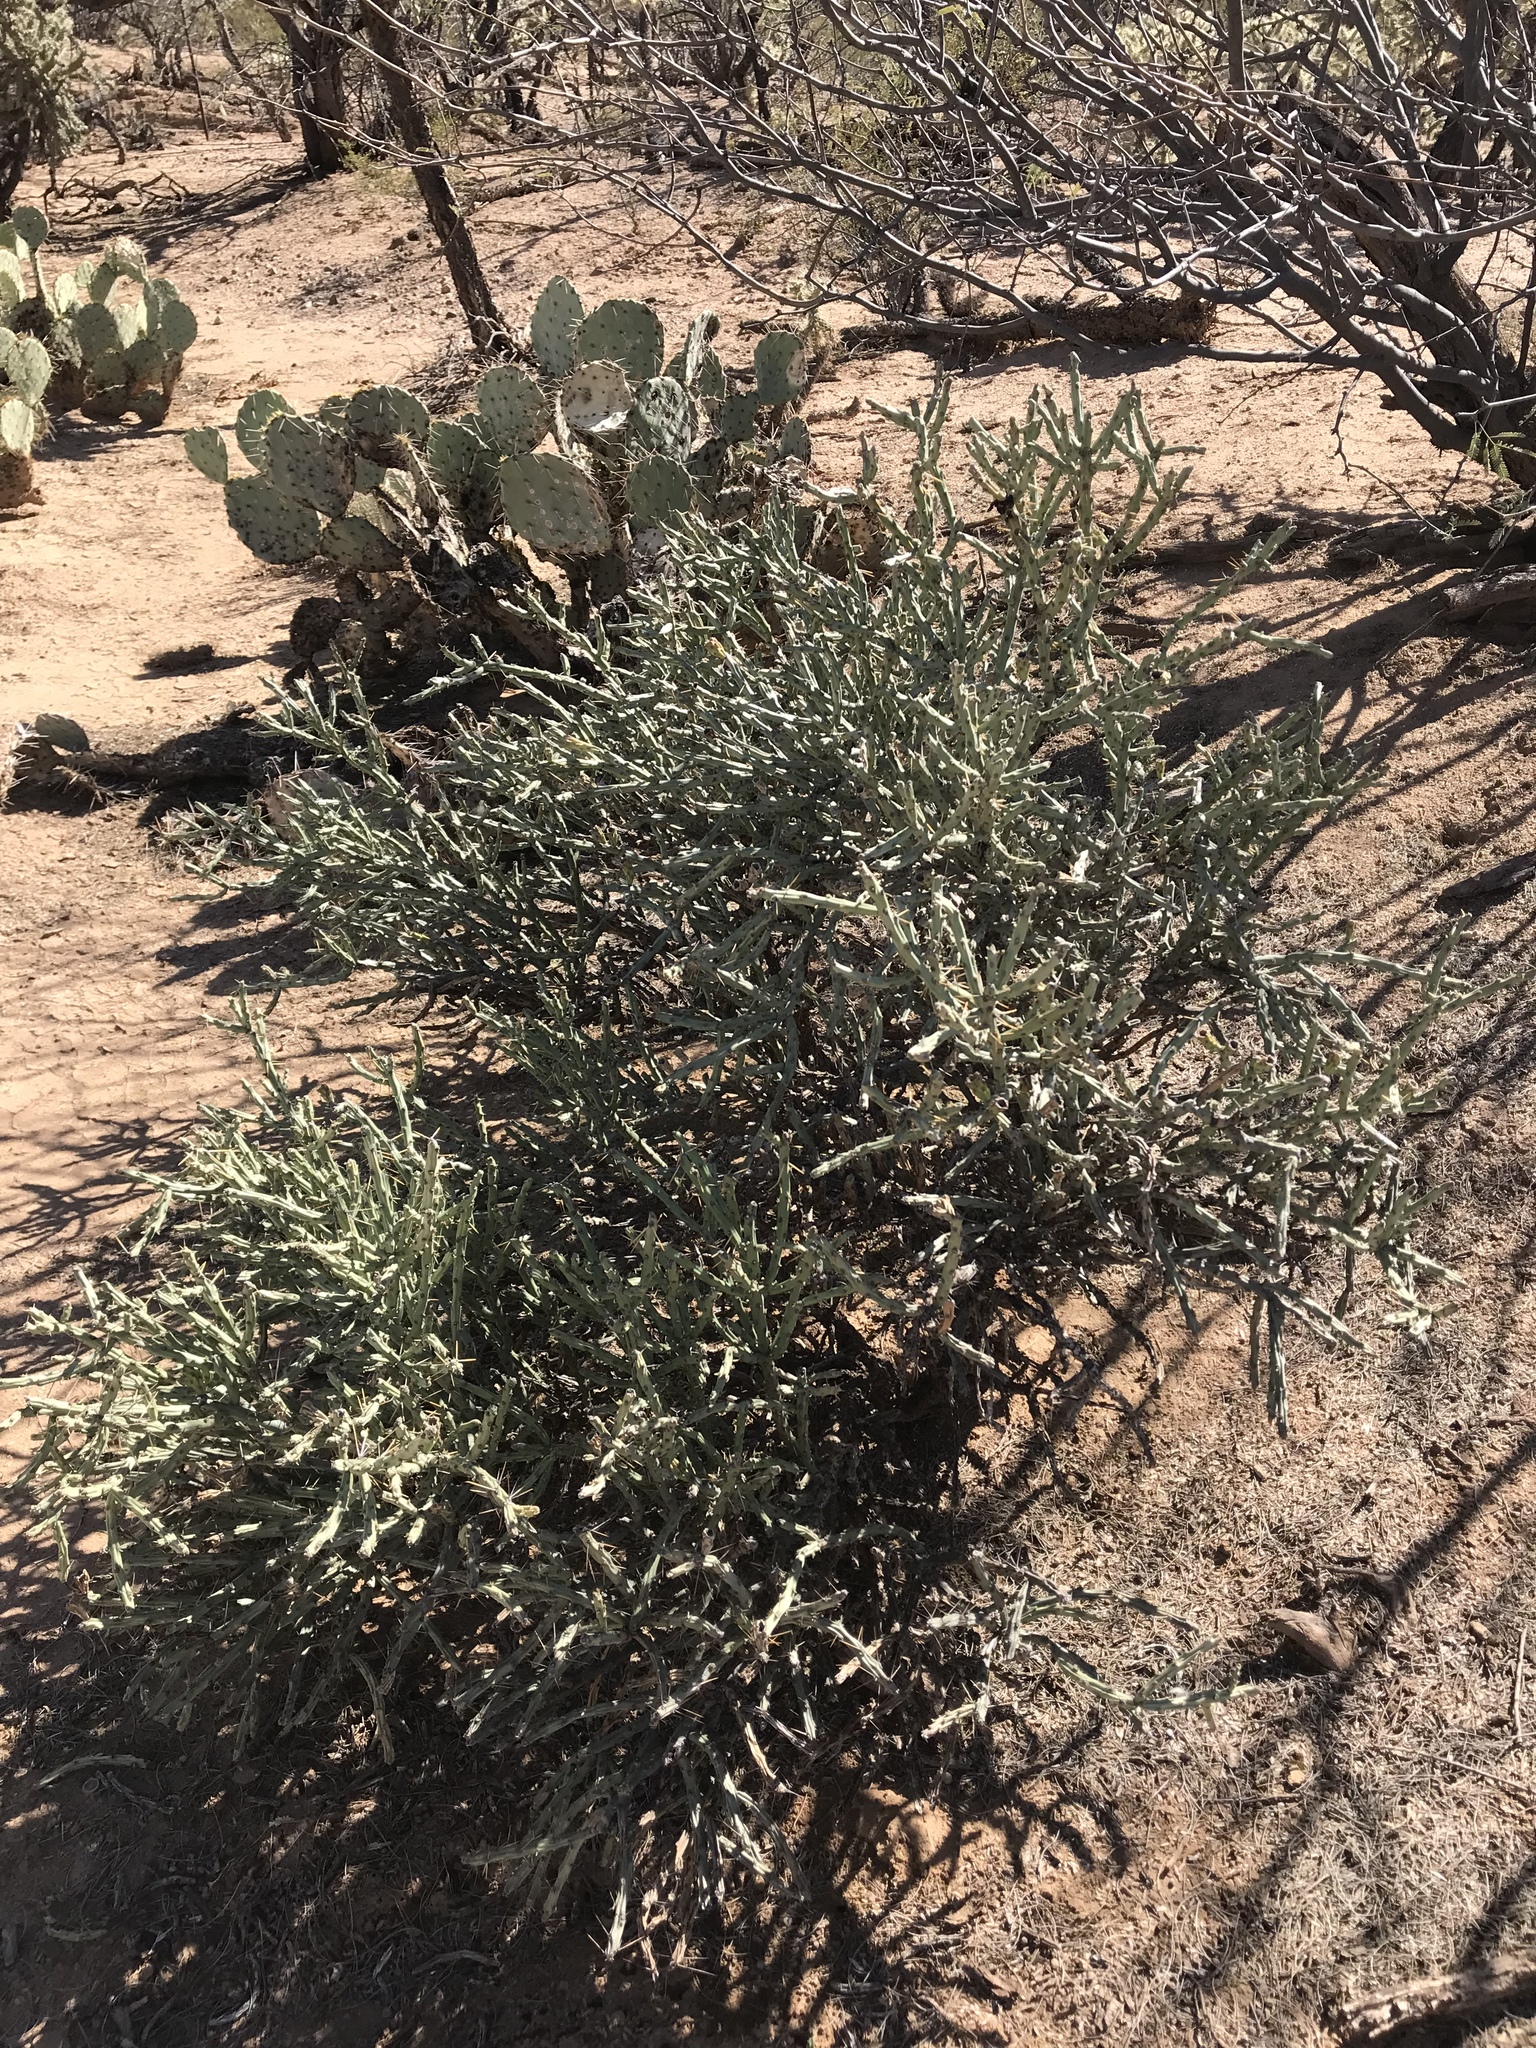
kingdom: Plantae
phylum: Tracheophyta
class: Magnoliopsida
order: Caryophyllales
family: Cactaceae
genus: Cylindropuntia
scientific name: Cylindropuntia arbuscula
